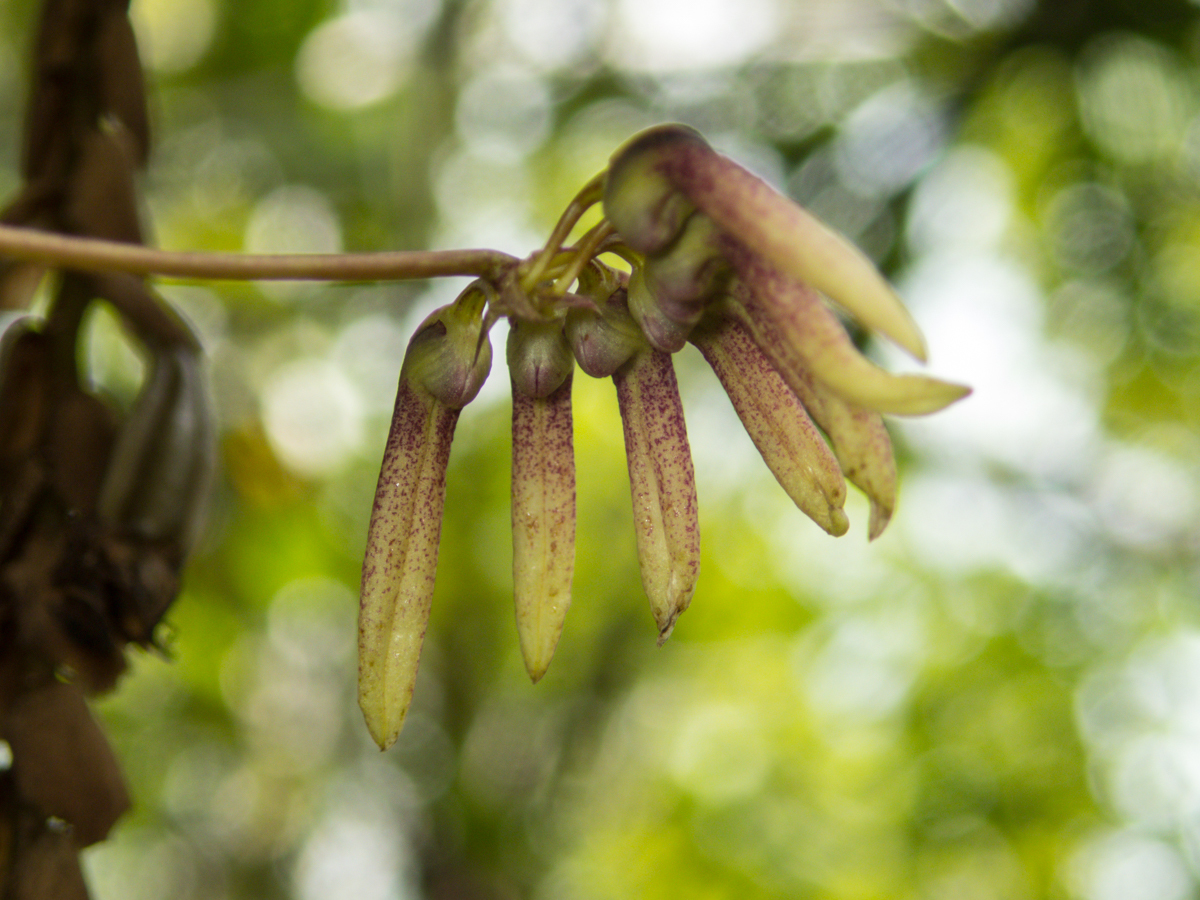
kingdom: Plantae
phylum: Tracheophyta
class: Liliopsida
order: Asparagales
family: Orchidaceae
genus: Bulbophyllum
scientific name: Bulbophyllum lepidum
